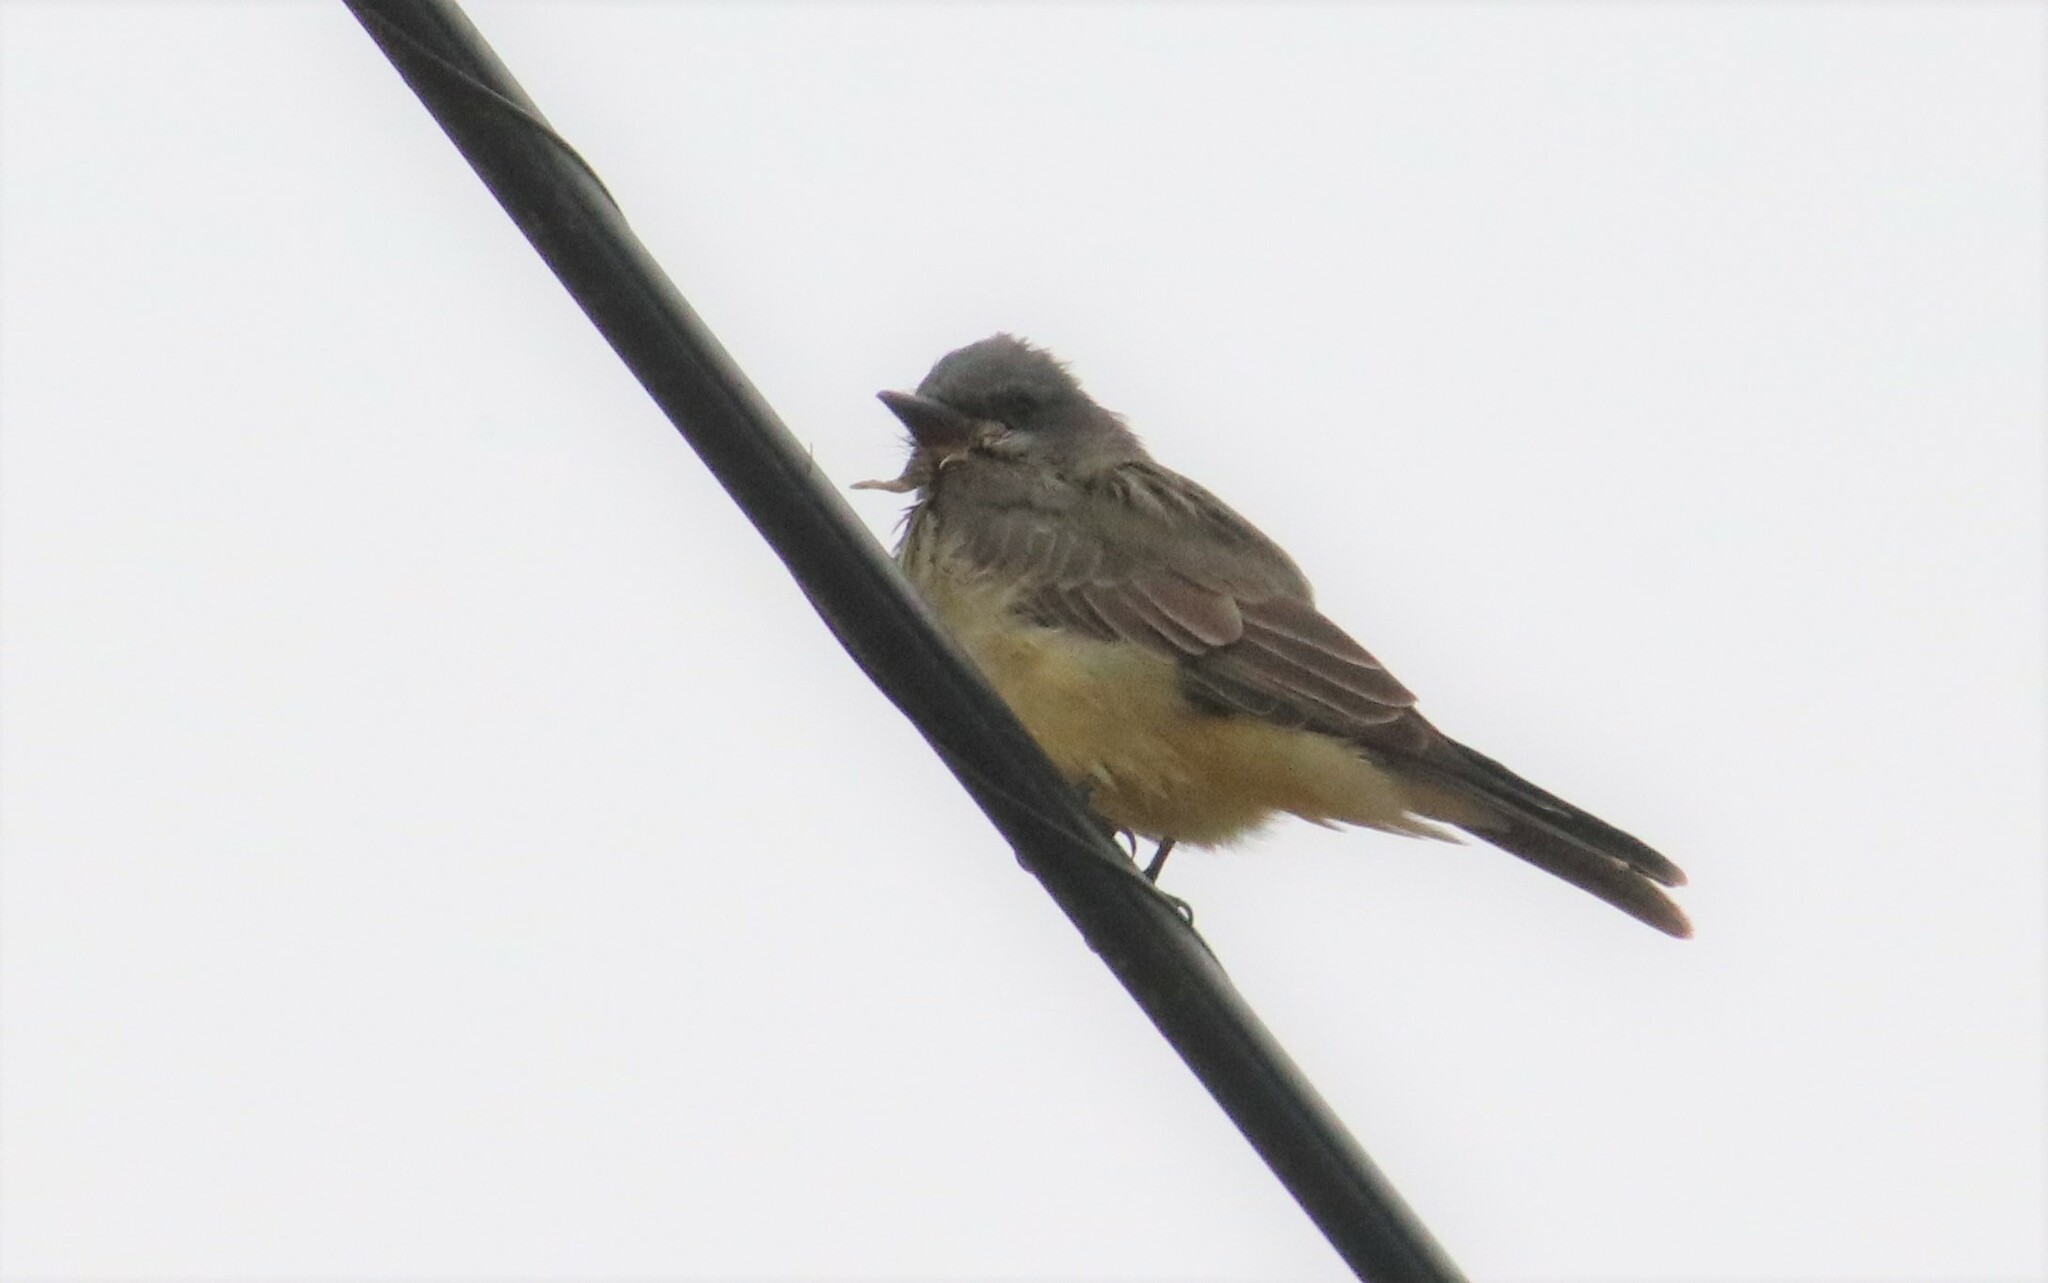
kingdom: Animalia
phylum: Chordata
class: Aves
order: Passeriformes
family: Tyrannidae
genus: Tyrannus
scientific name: Tyrannus vociferans
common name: Cassin's kingbird
